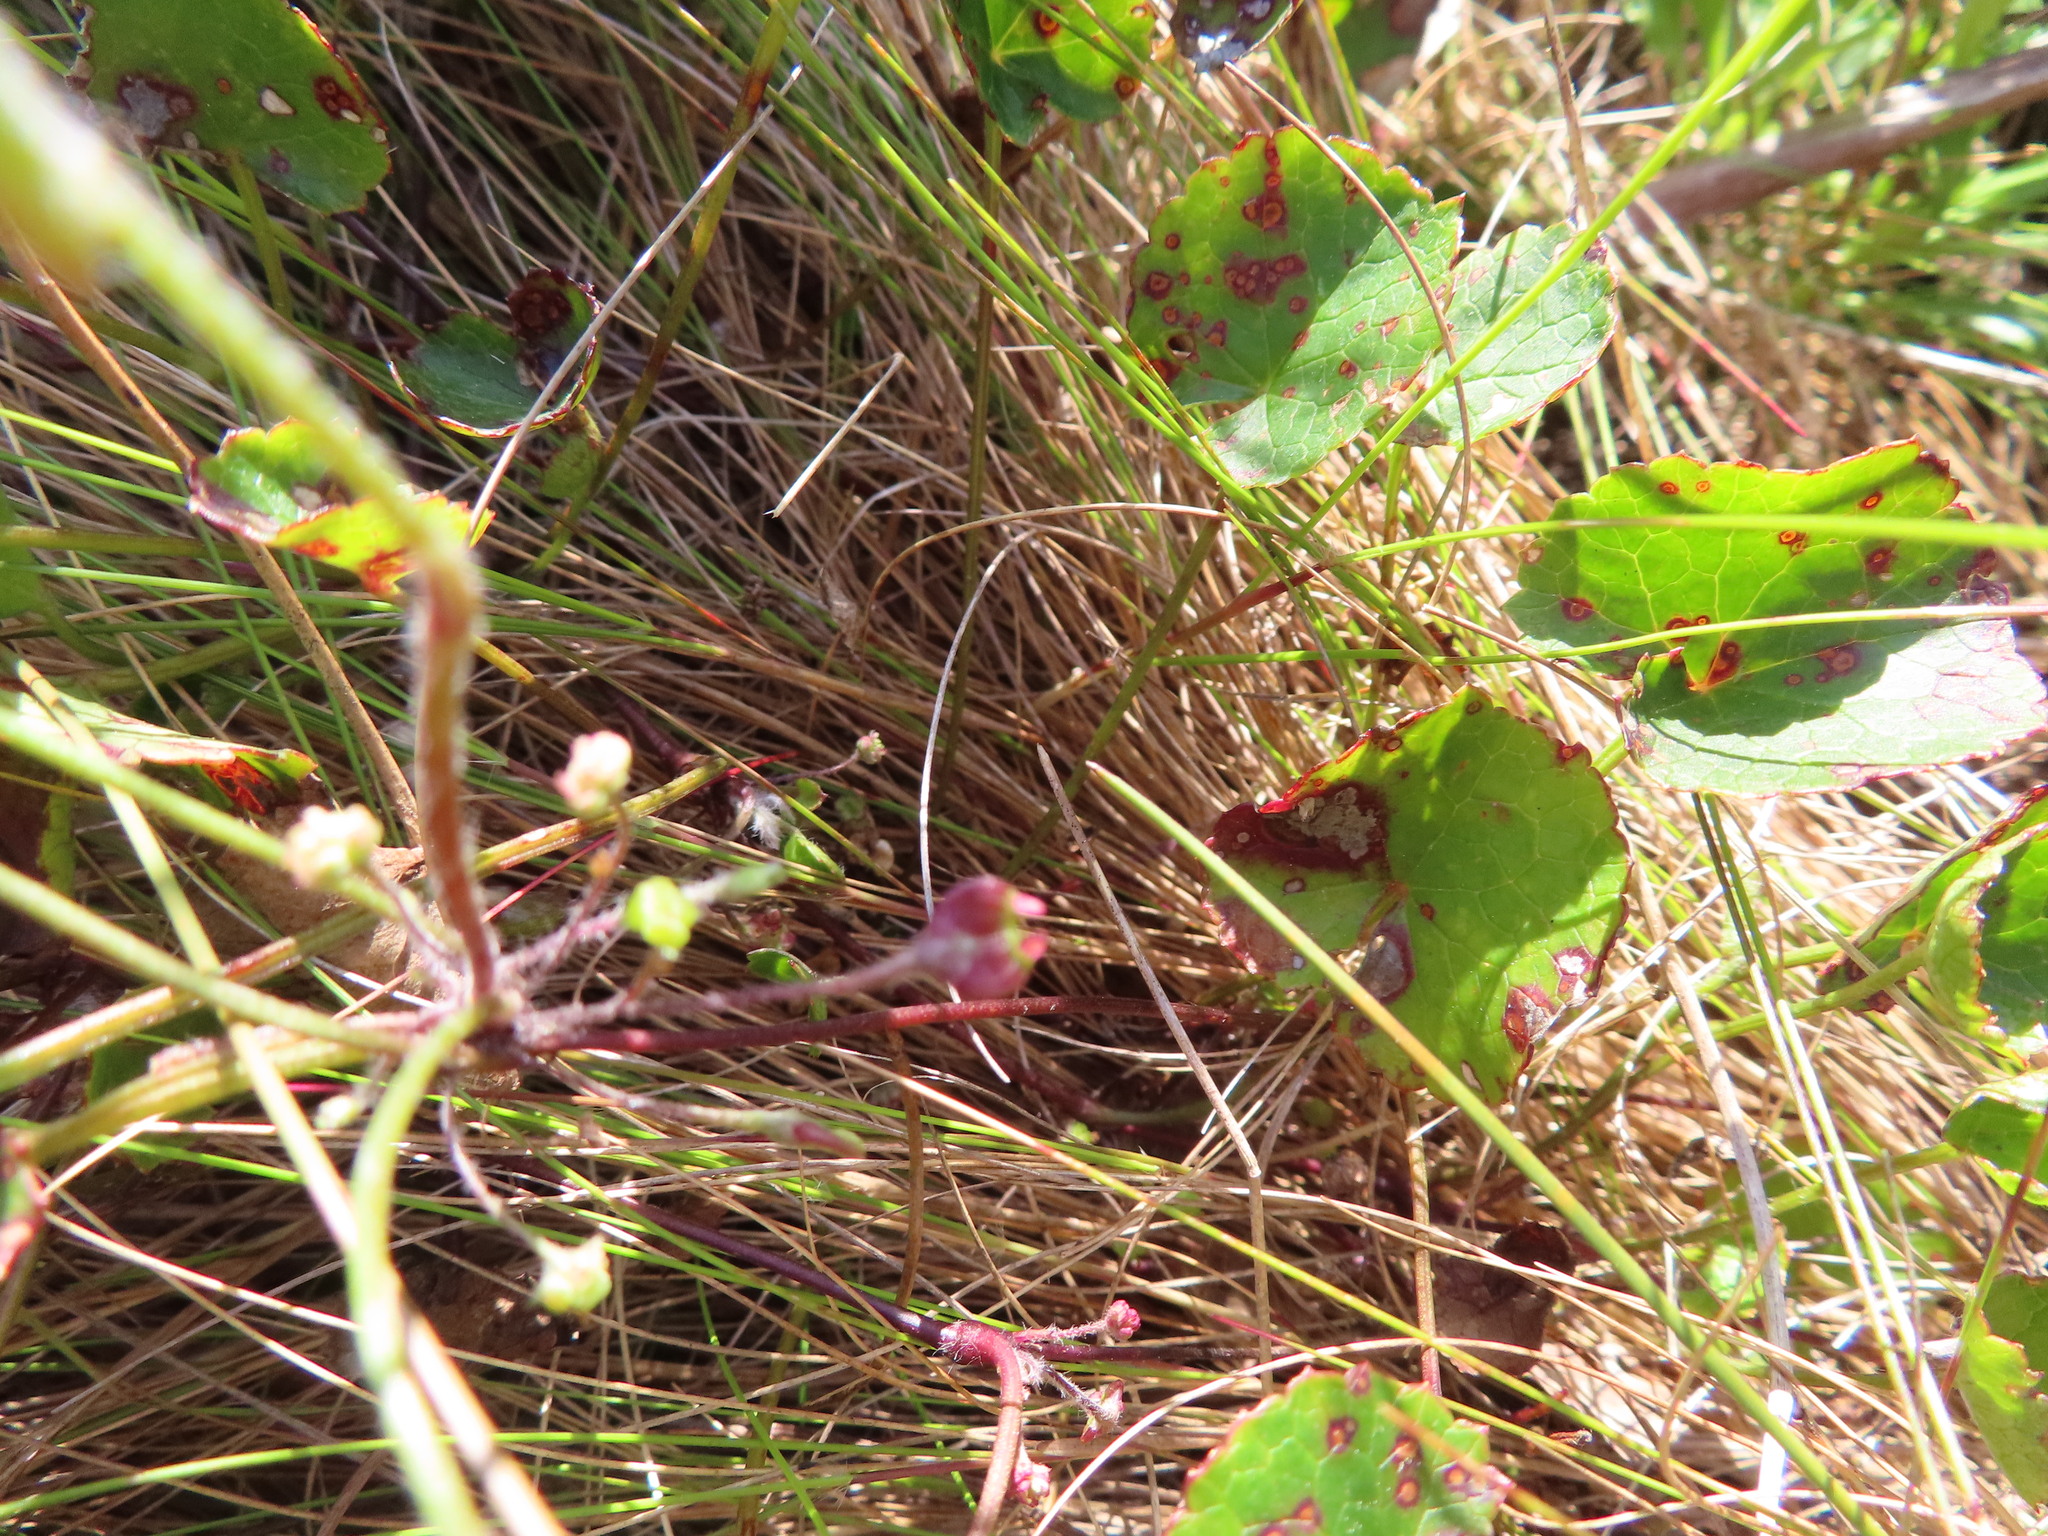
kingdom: Plantae
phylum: Tracheophyta
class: Magnoliopsida
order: Apiales
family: Apiaceae
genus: Centella
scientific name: Centella eriantha
